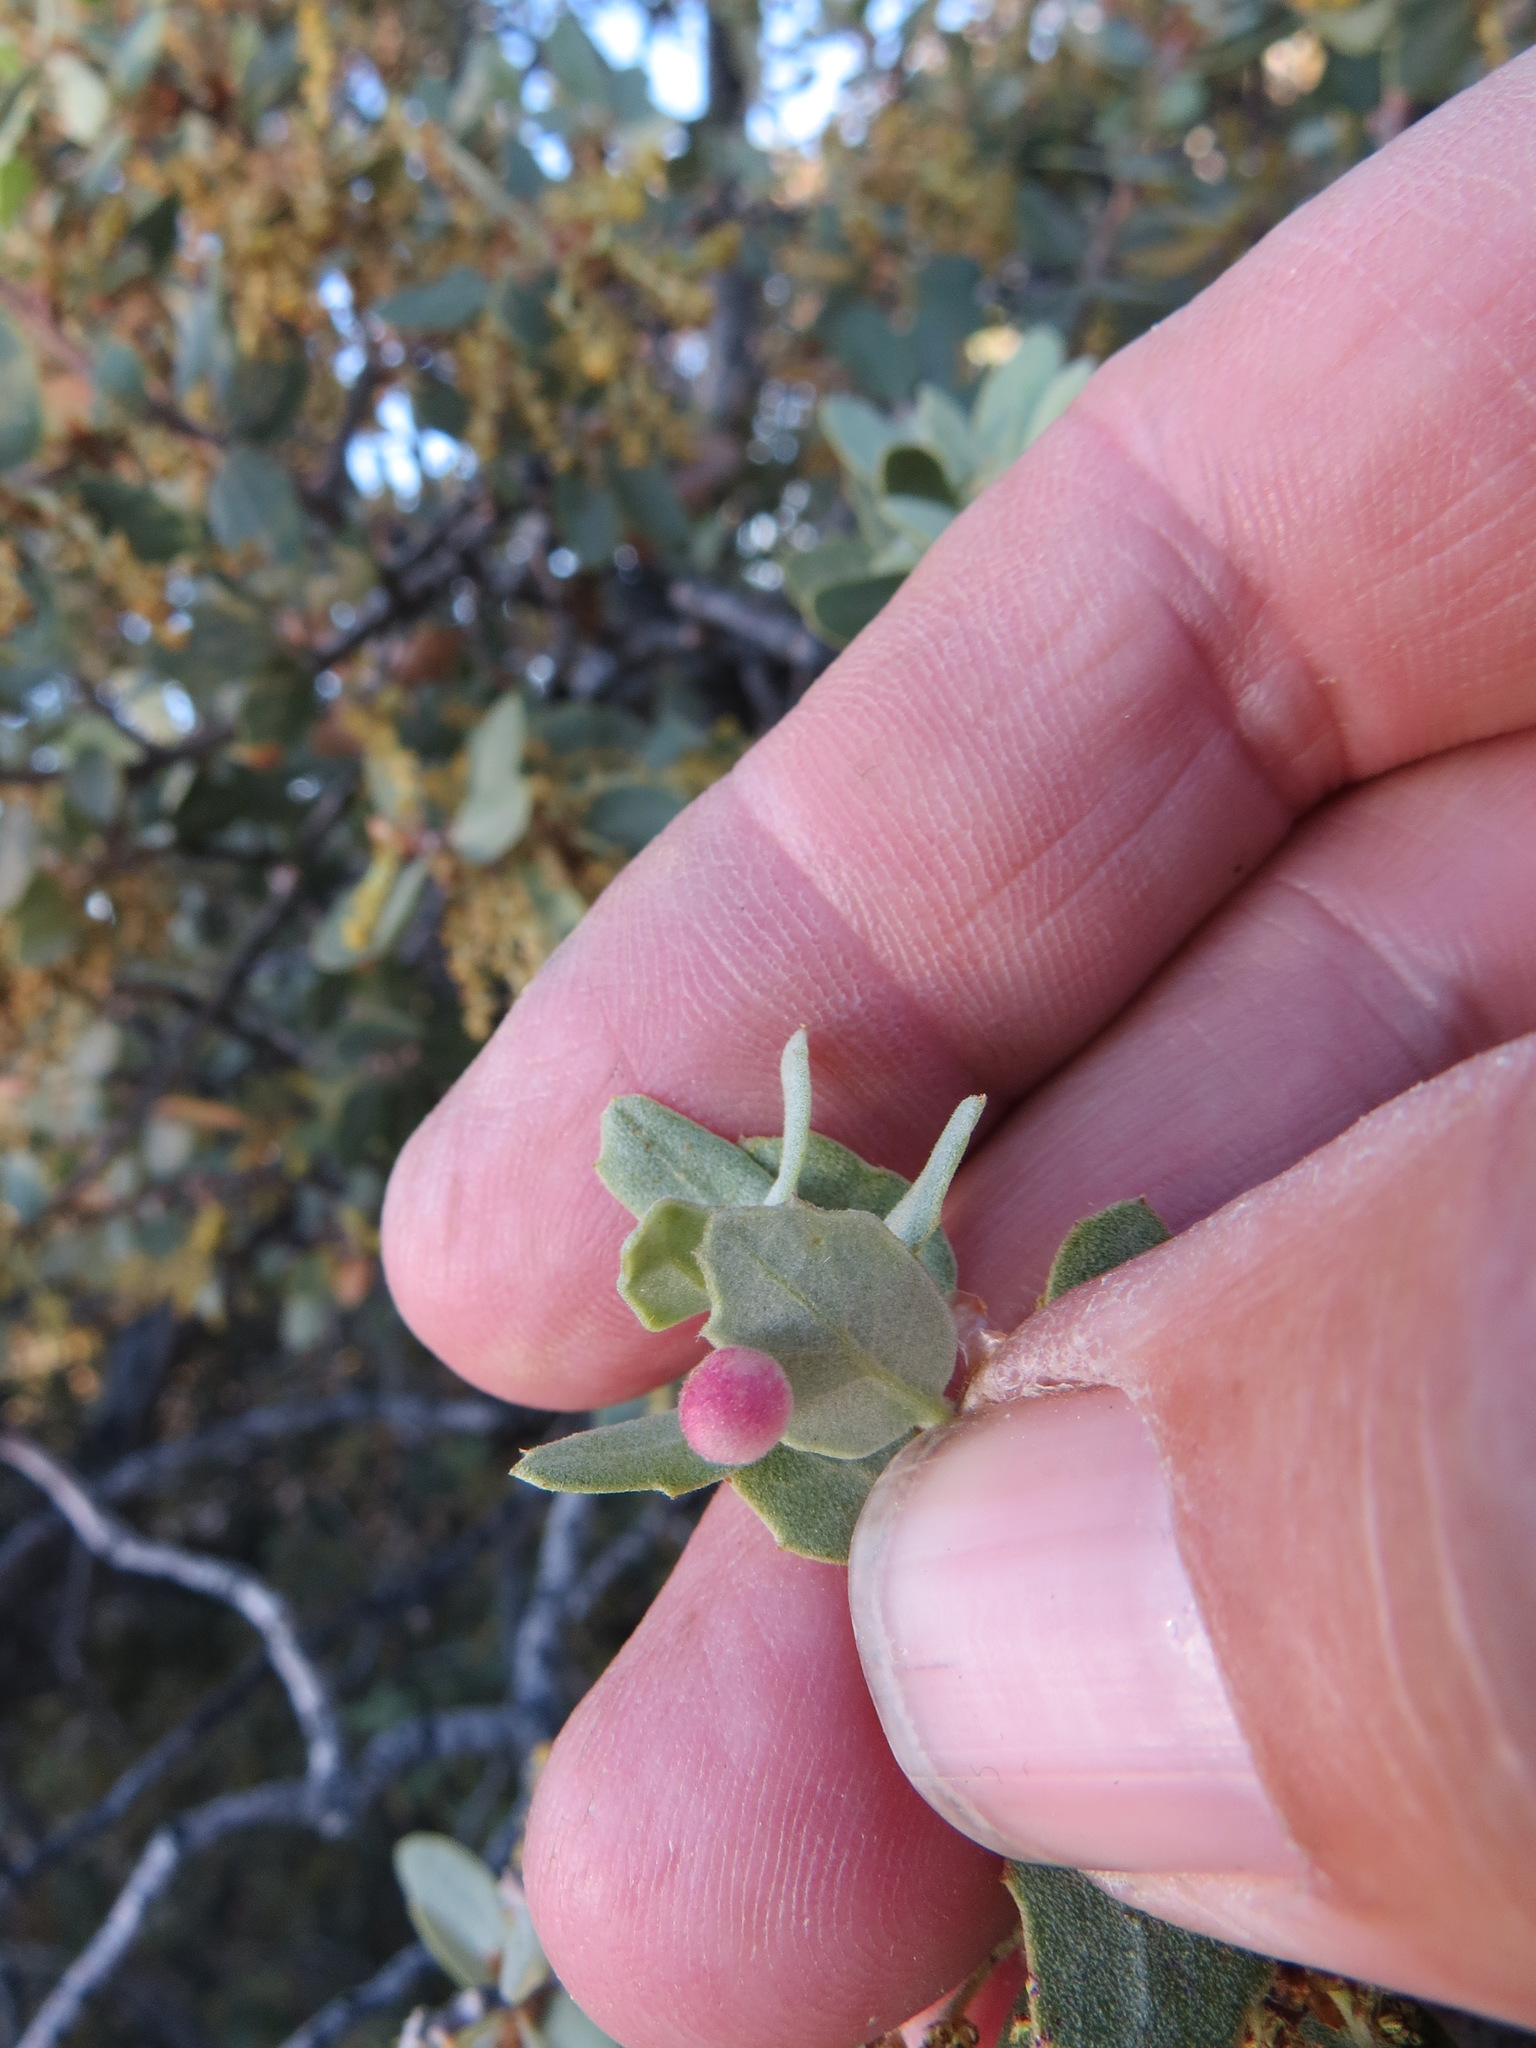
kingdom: Animalia
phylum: Arthropoda
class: Insecta
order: Hymenoptera
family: Cynipidae
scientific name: Cynipidae
